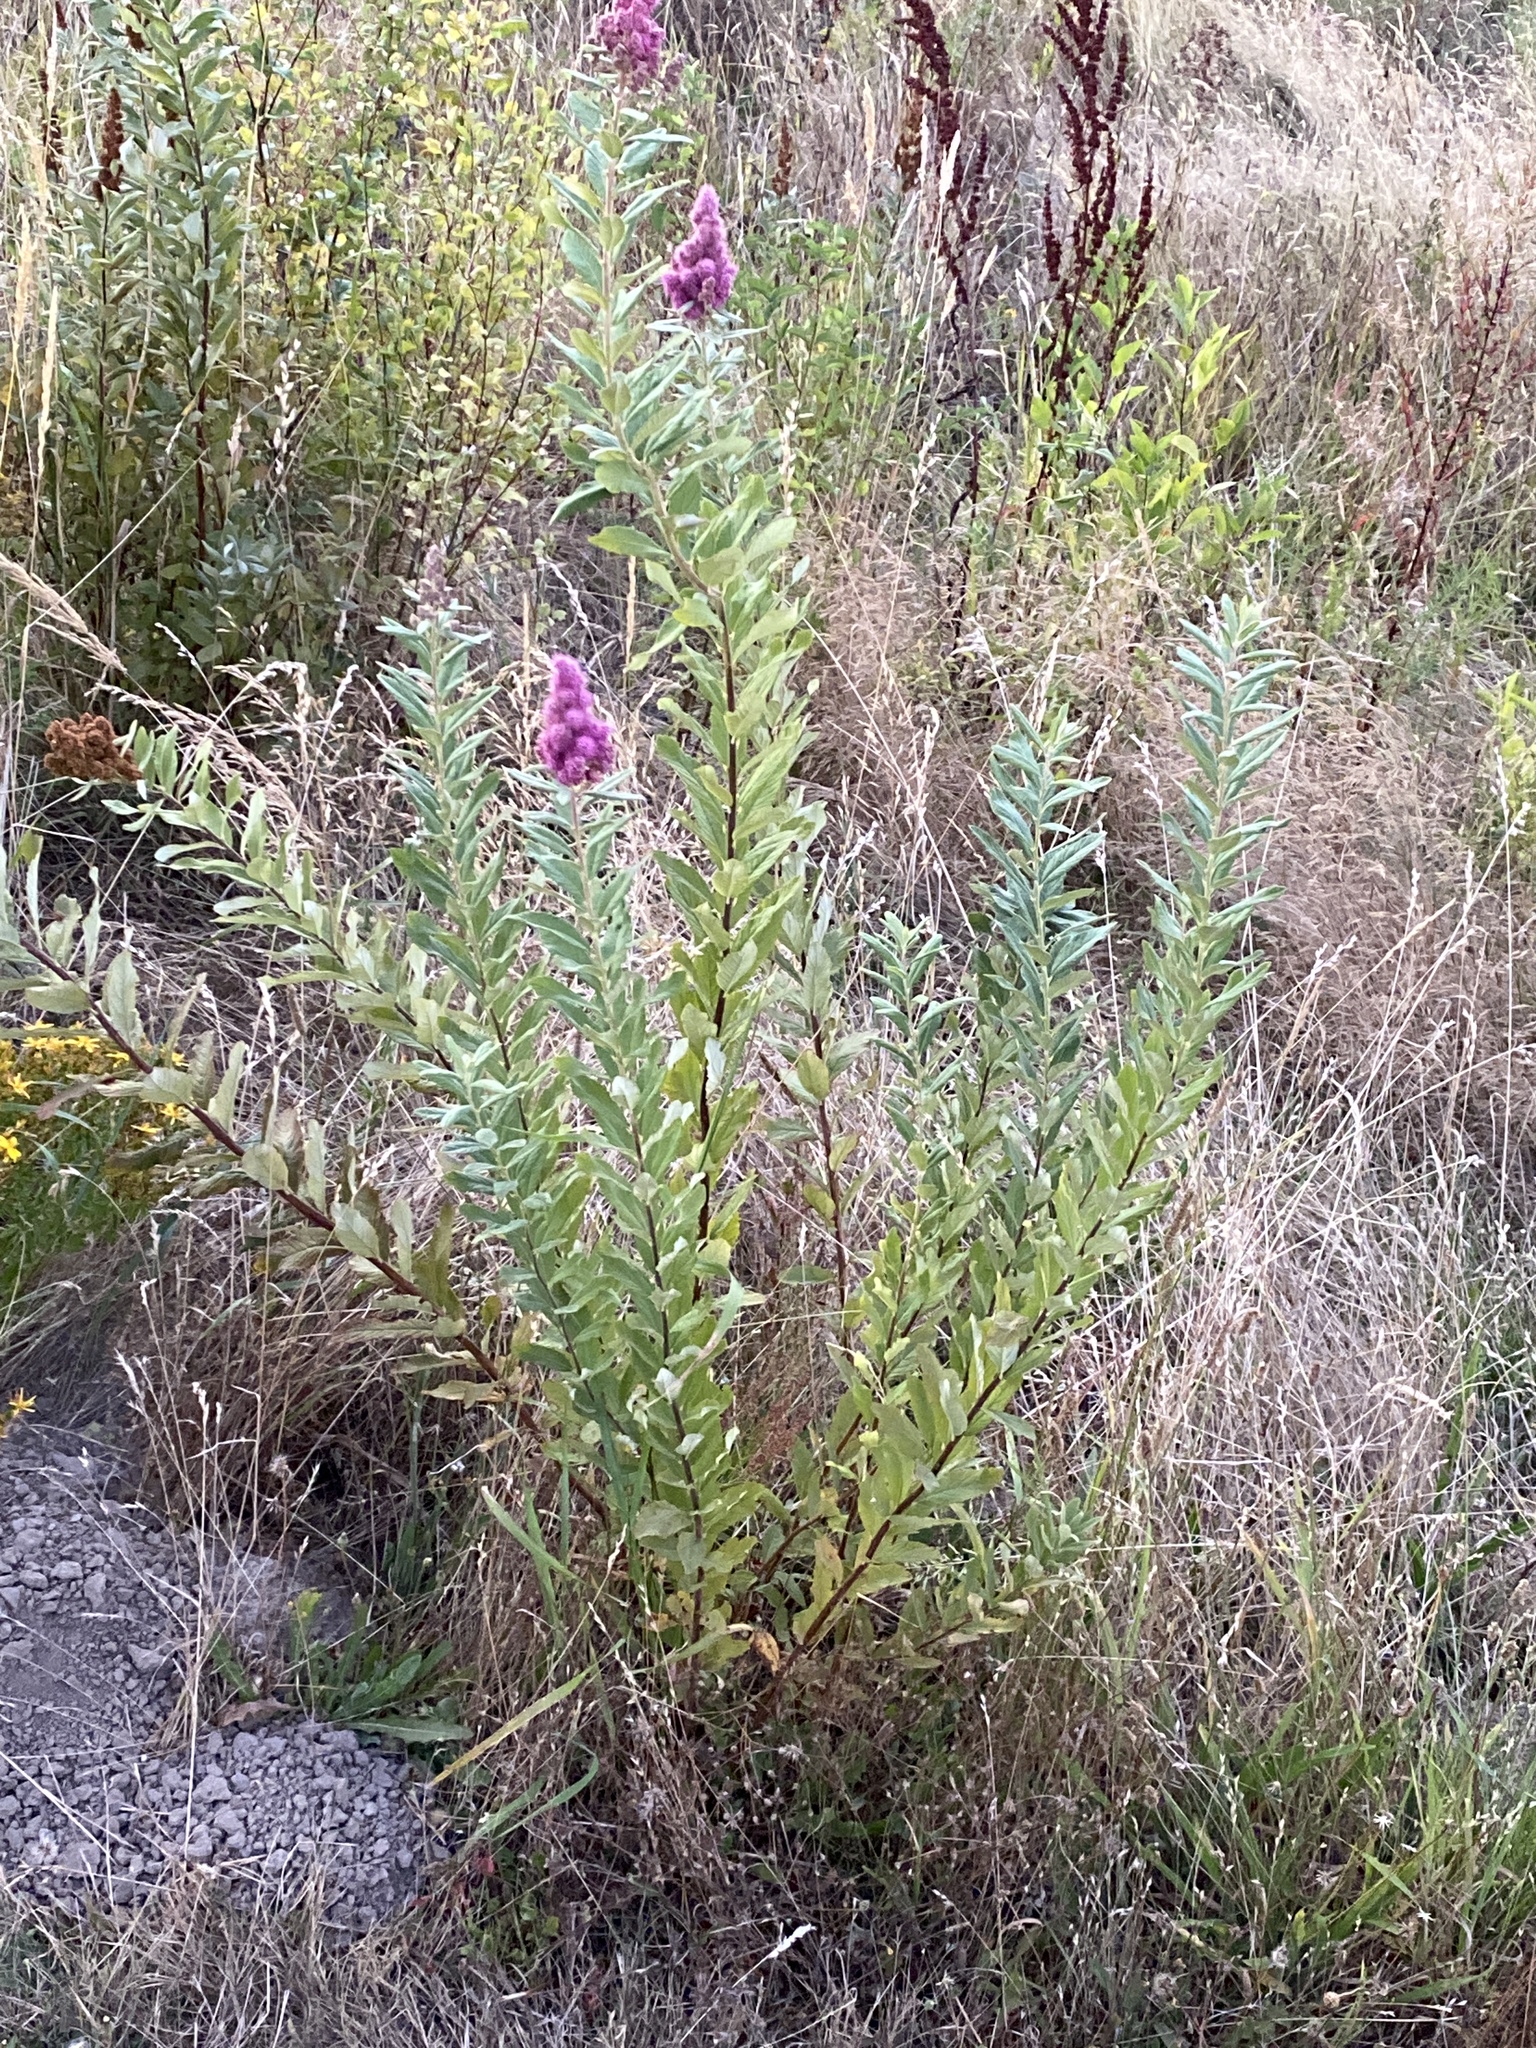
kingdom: Plantae
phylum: Tracheophyta
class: Magnoliopsida
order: Rosales
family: Rosaceae
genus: Spiraea
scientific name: Spiraea douglasii
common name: Steeplebush
